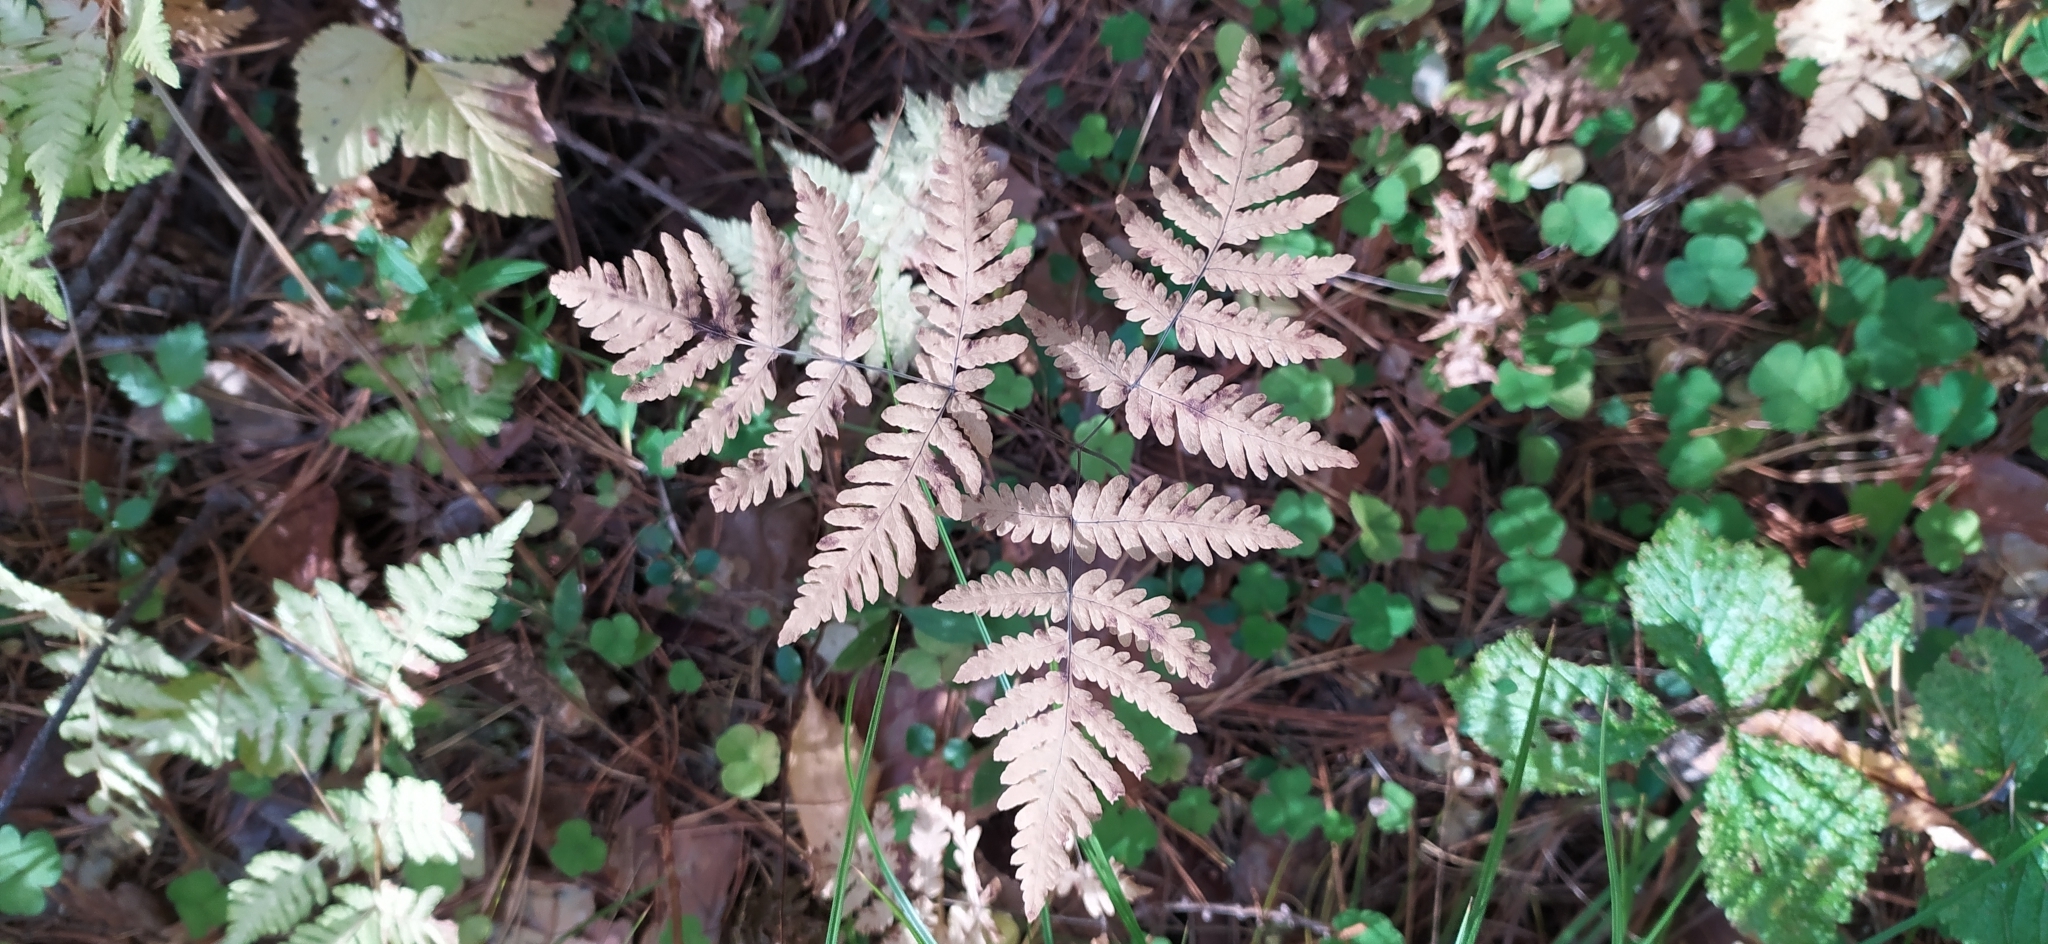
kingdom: Plantae
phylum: Tracheophyta
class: Polypodiopsida
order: Polypodiales
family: Cystopteridaceae
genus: Gymnocarpium
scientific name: Gymnocarpium dryopteris
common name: Oak fern
